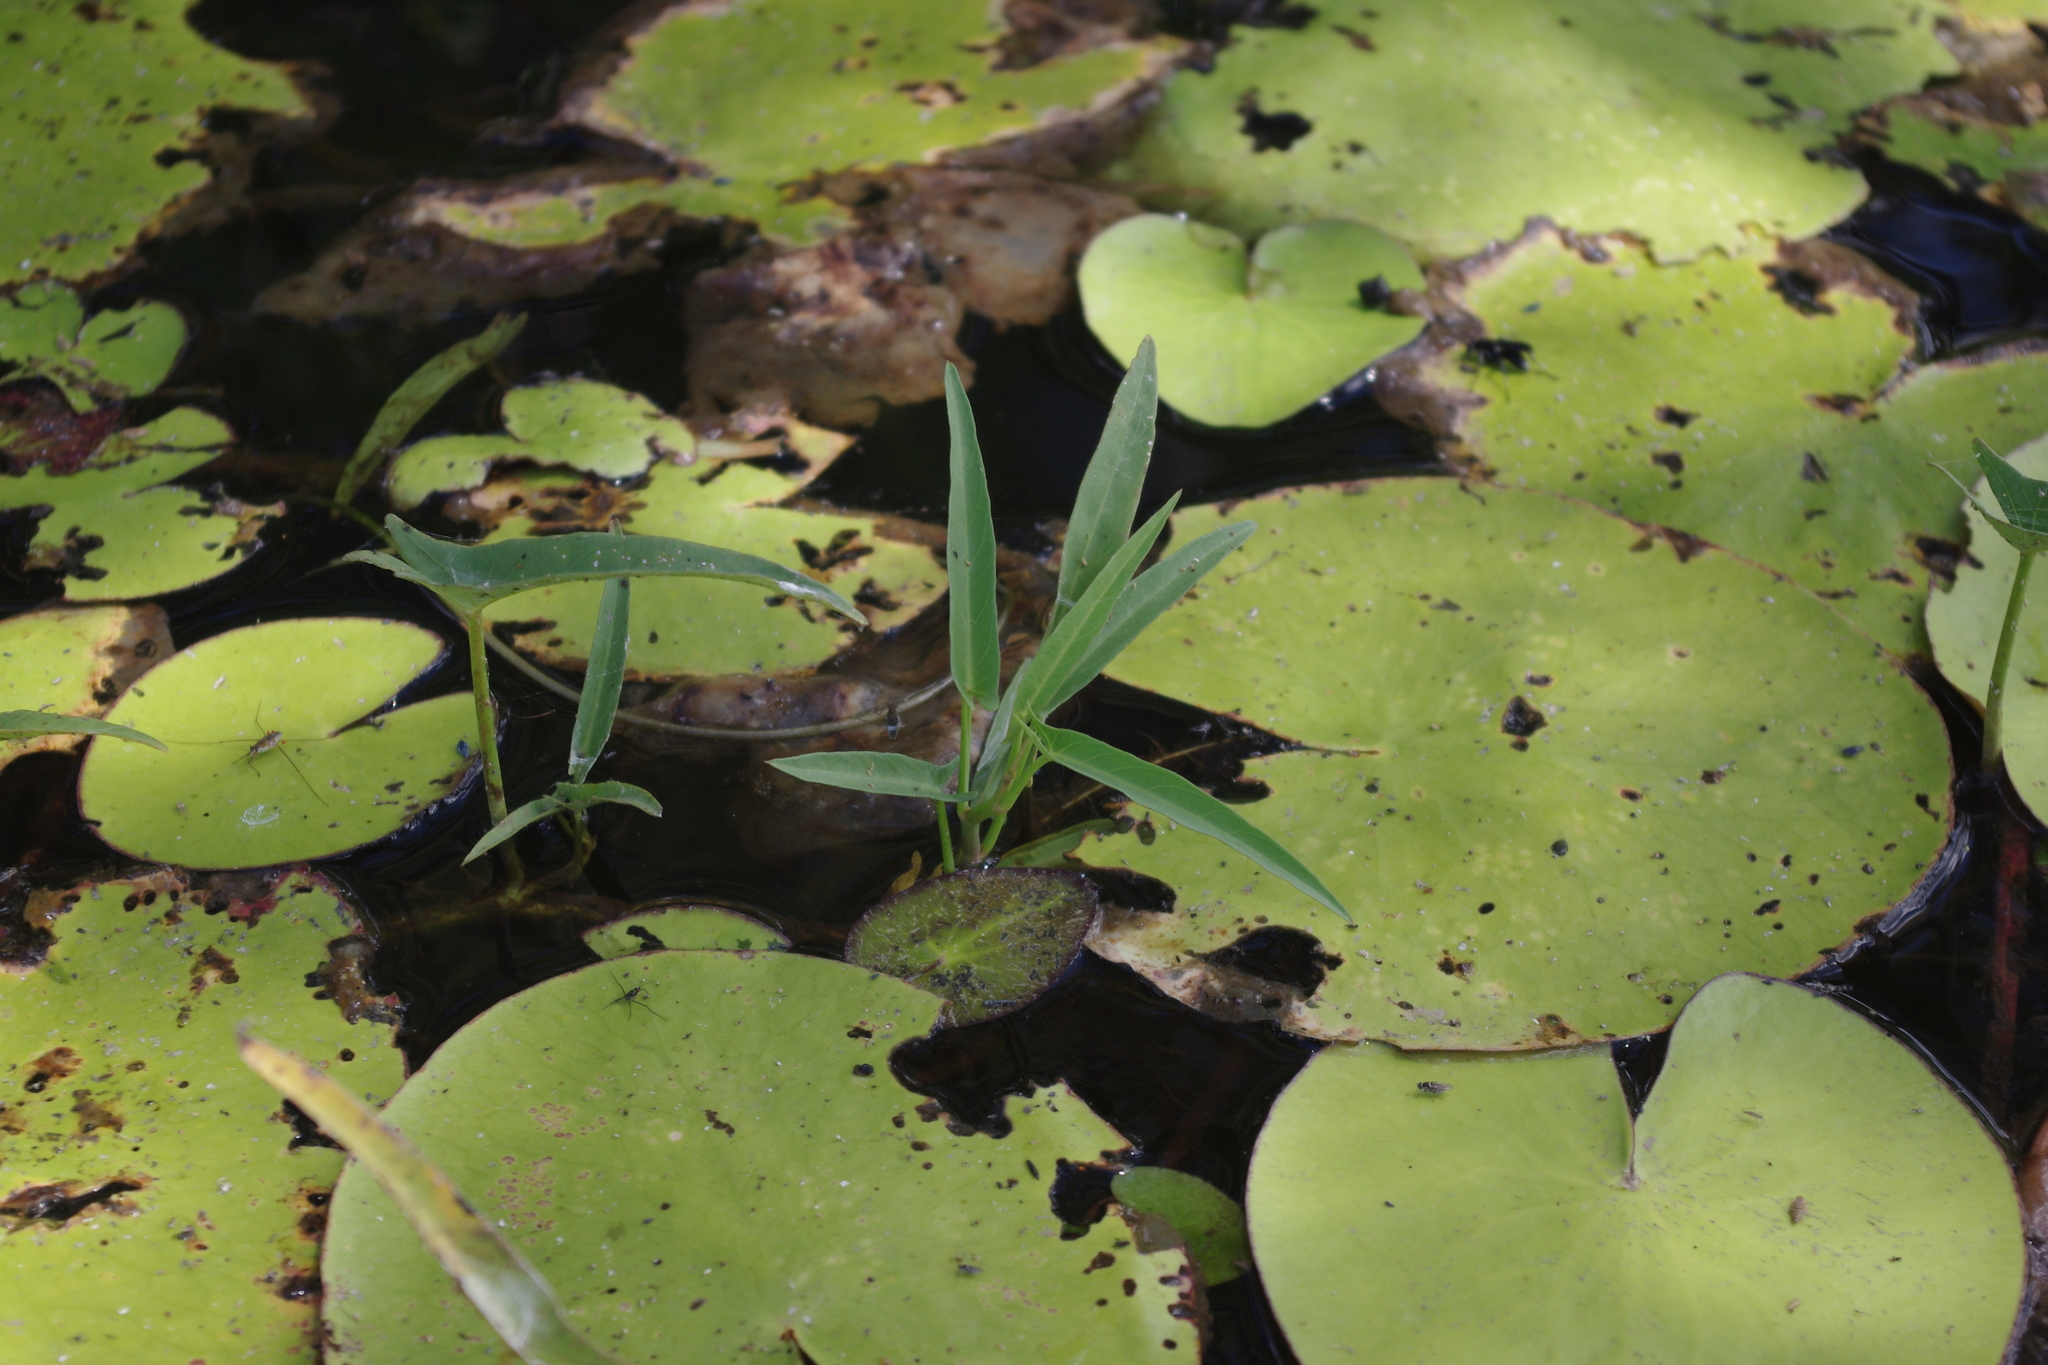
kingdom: Plantae
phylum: Tracheophyta
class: Magnoliopsida
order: Solanales
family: Convolvulaceae
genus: Ipomoea
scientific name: Ipomoea aquatica
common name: Swamp morning-glory
